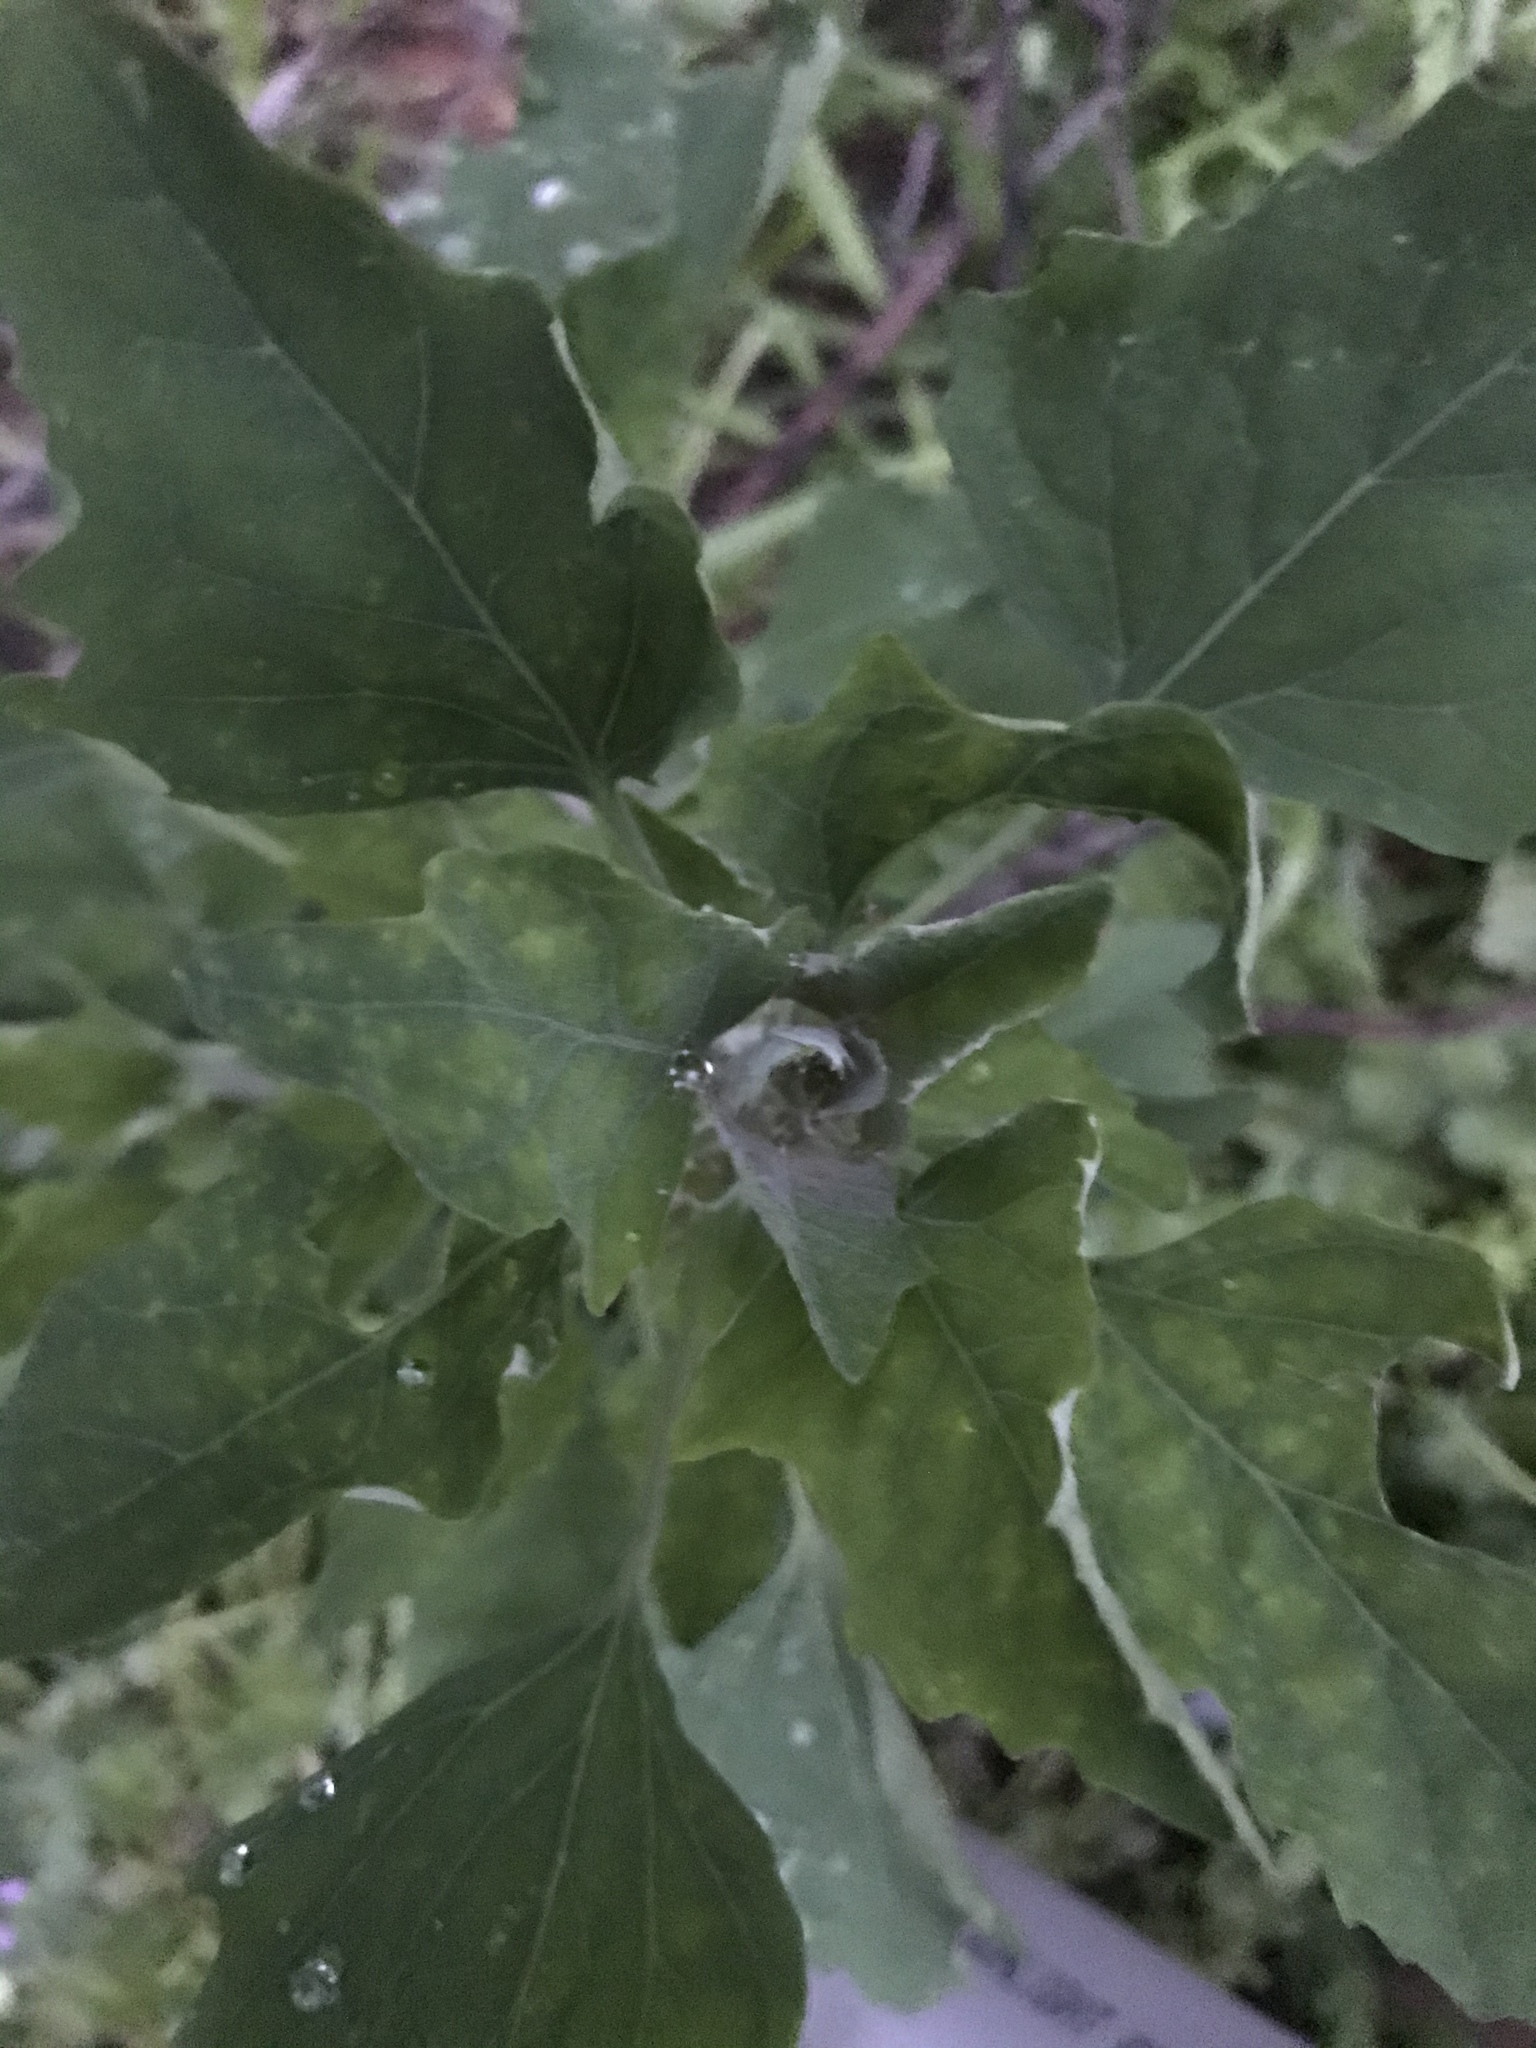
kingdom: Plantae
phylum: Tracheophyta
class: Magnoliopsida
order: Caryophyllales
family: Amaranthaceae
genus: Chenopodium
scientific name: Chenopodium album
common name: Fat-hen
